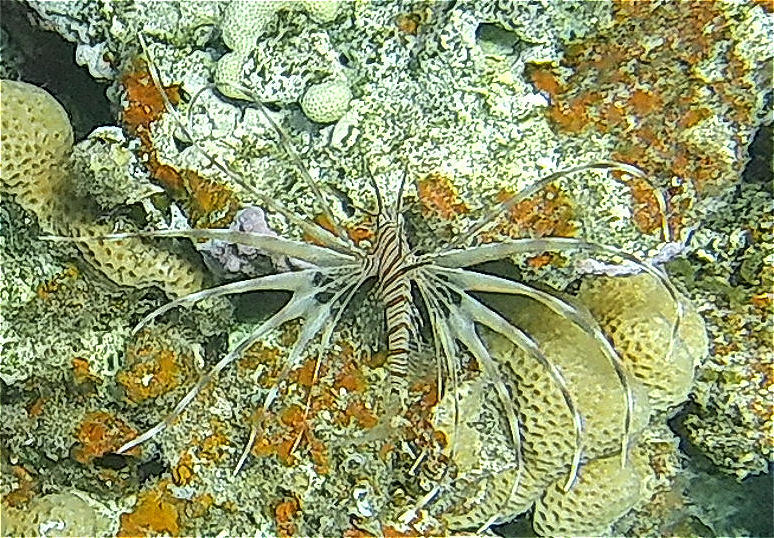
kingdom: Animalia
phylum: Chordata
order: Scorpaeniformes
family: Scorpaenidae
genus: Pterois
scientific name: Pterois miles
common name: Devil firefish
